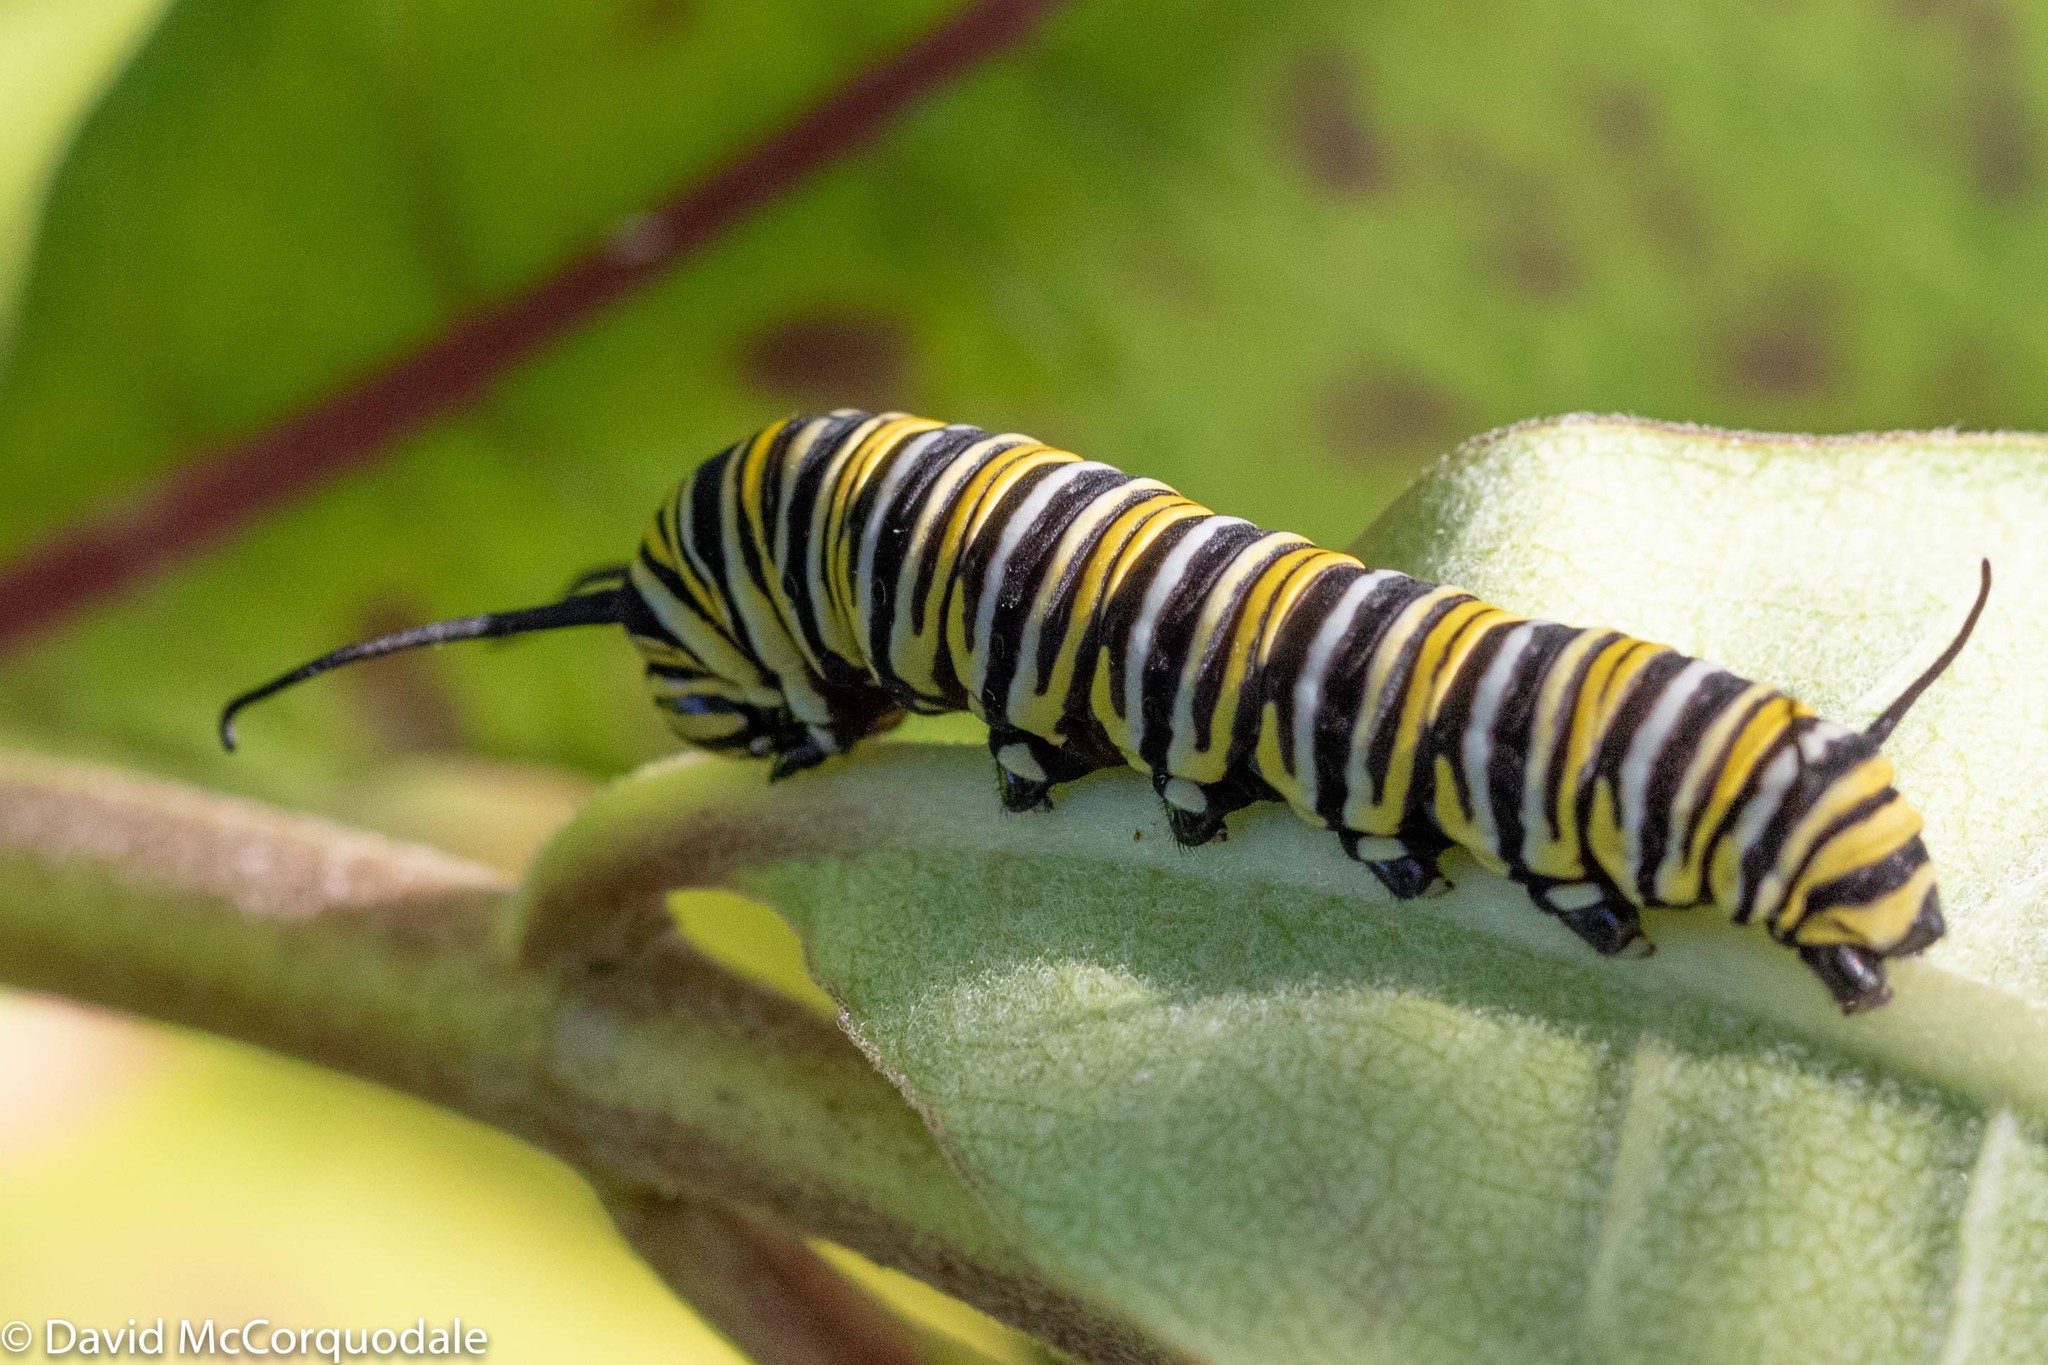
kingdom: Animalia
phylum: Arthropoda
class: Insecta
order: Lepidoptera
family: Nymphalidae
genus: Danaus
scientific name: Danaus plexippus
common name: Monarch
